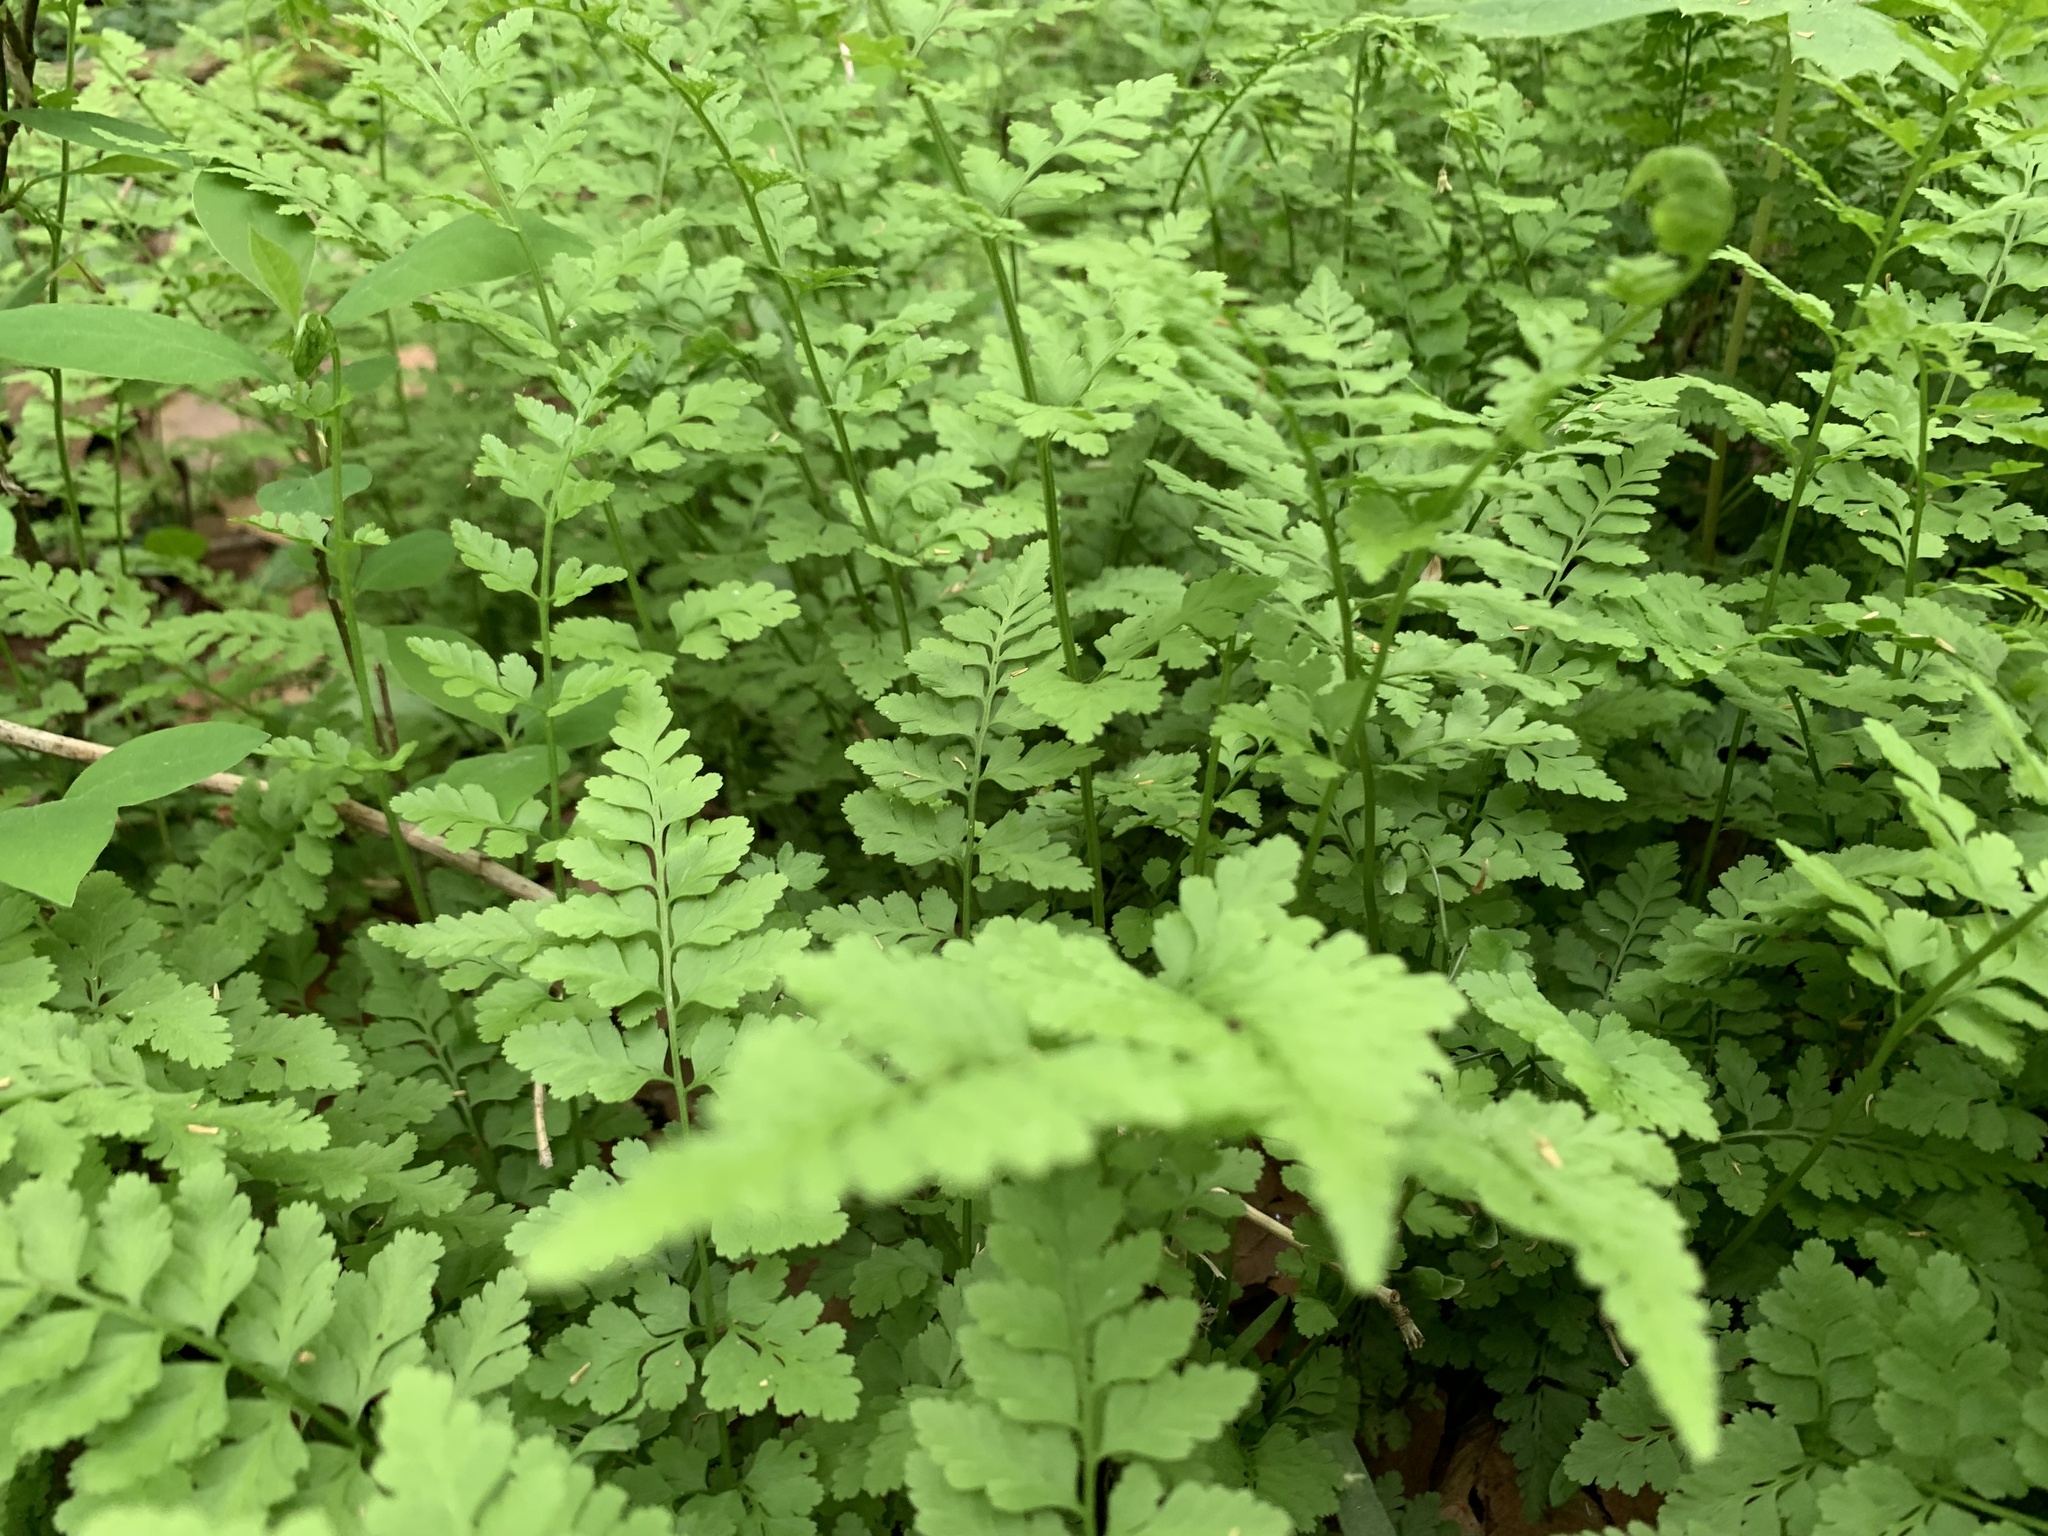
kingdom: Plantae
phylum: Tracheophyta
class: Polypodiopsida
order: Polypodiales
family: Cystopteridaceae
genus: Cystopteris
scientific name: Cystopteris protrusa
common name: Lowland brittle fern
